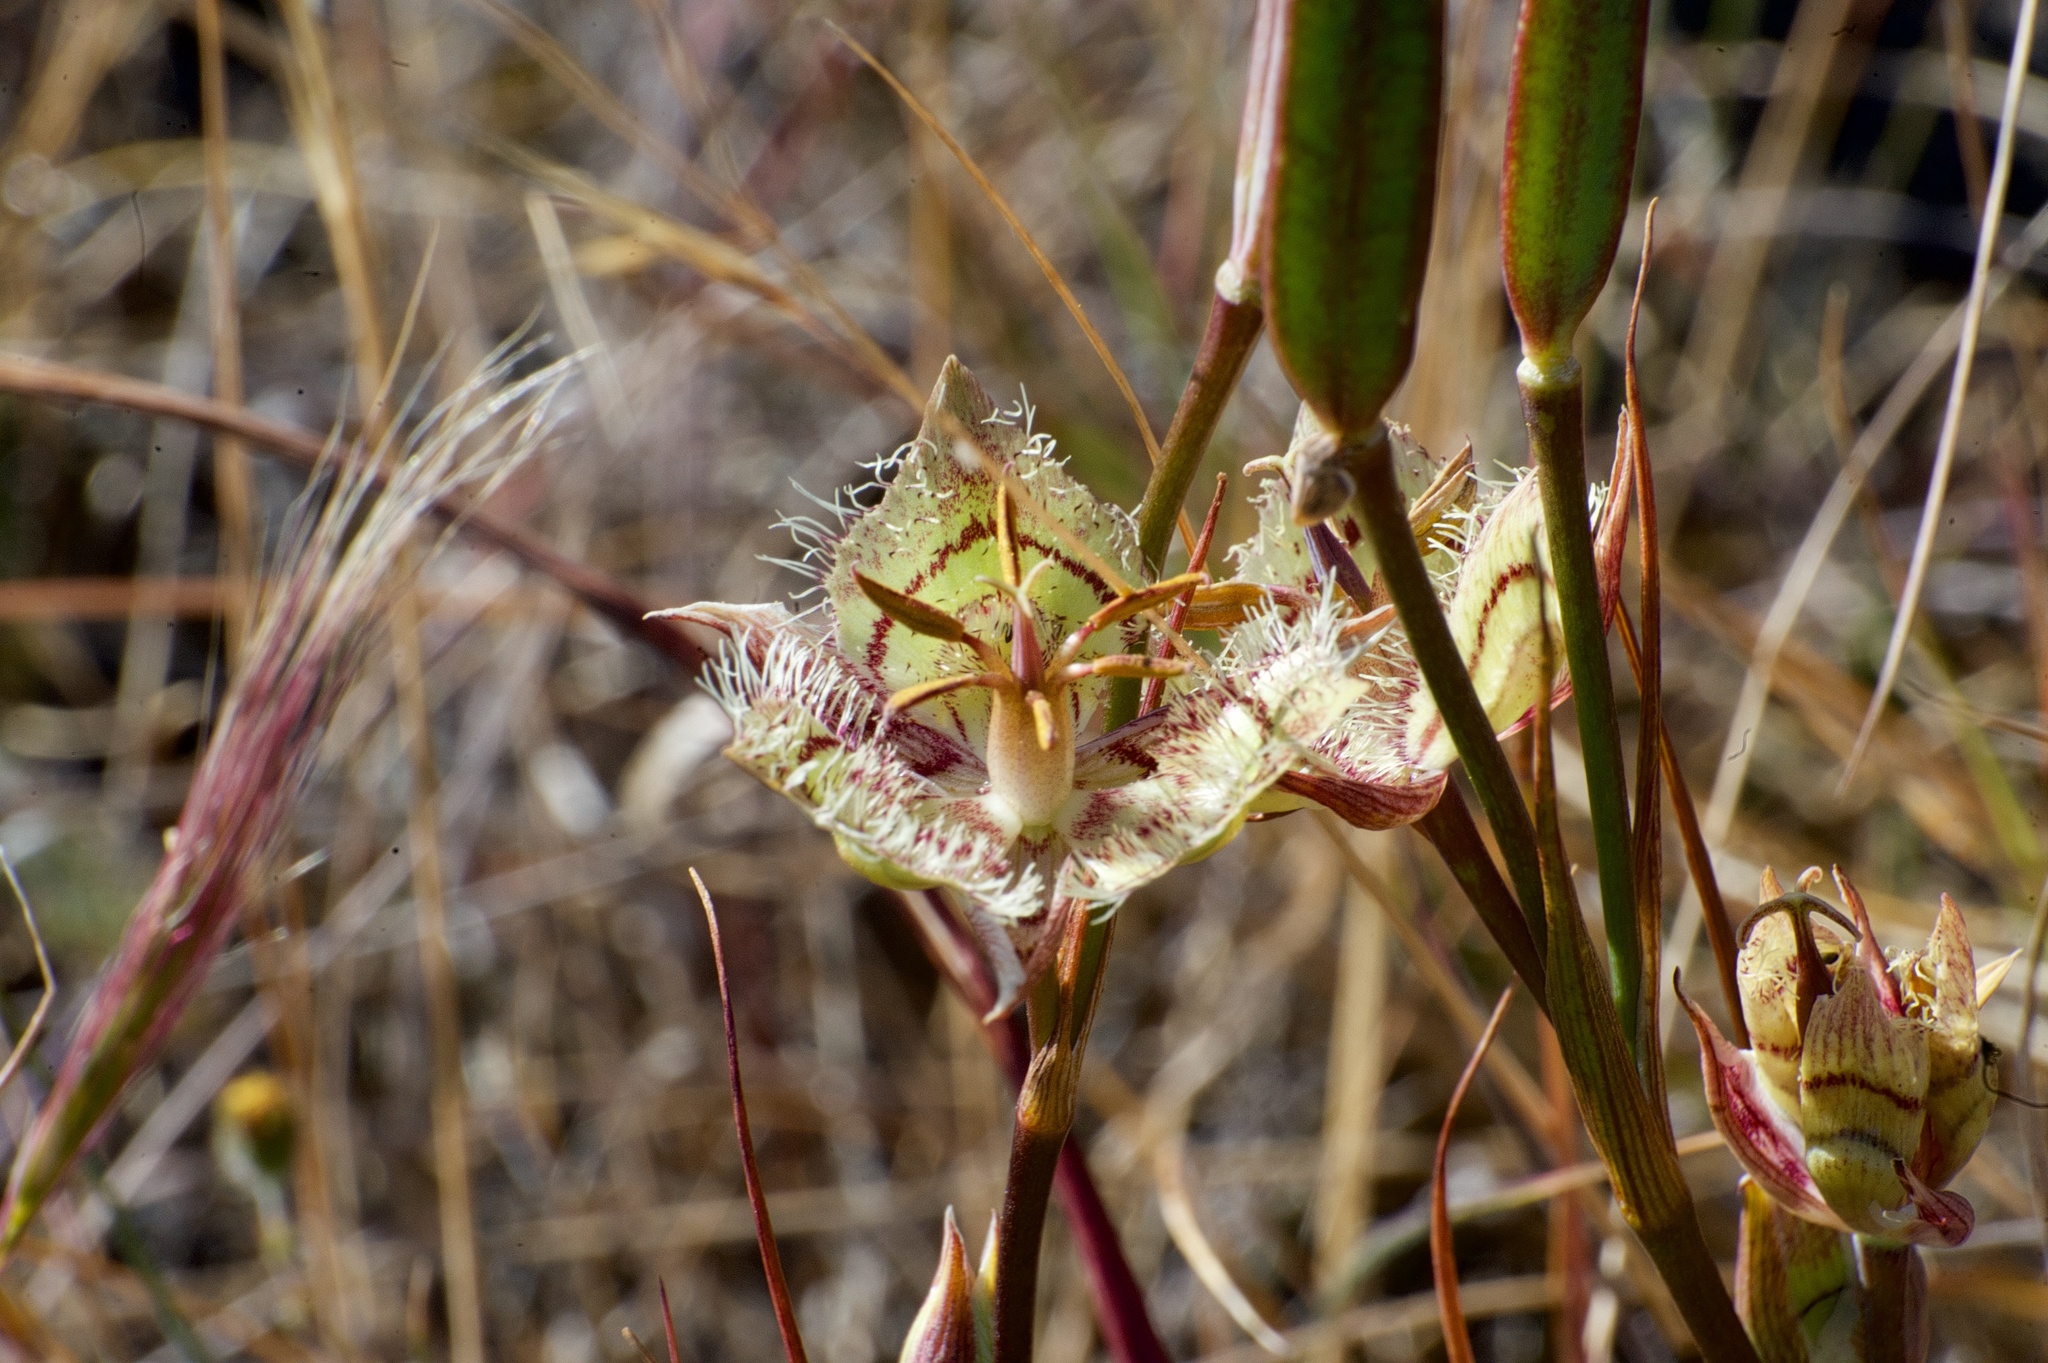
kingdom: Plantae
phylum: Tracheophyta
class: Liliopsida
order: Liliales
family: Liliaceae
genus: Calochortus
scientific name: Calochortus tiburonensis
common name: Tiburon mariposa-lily
